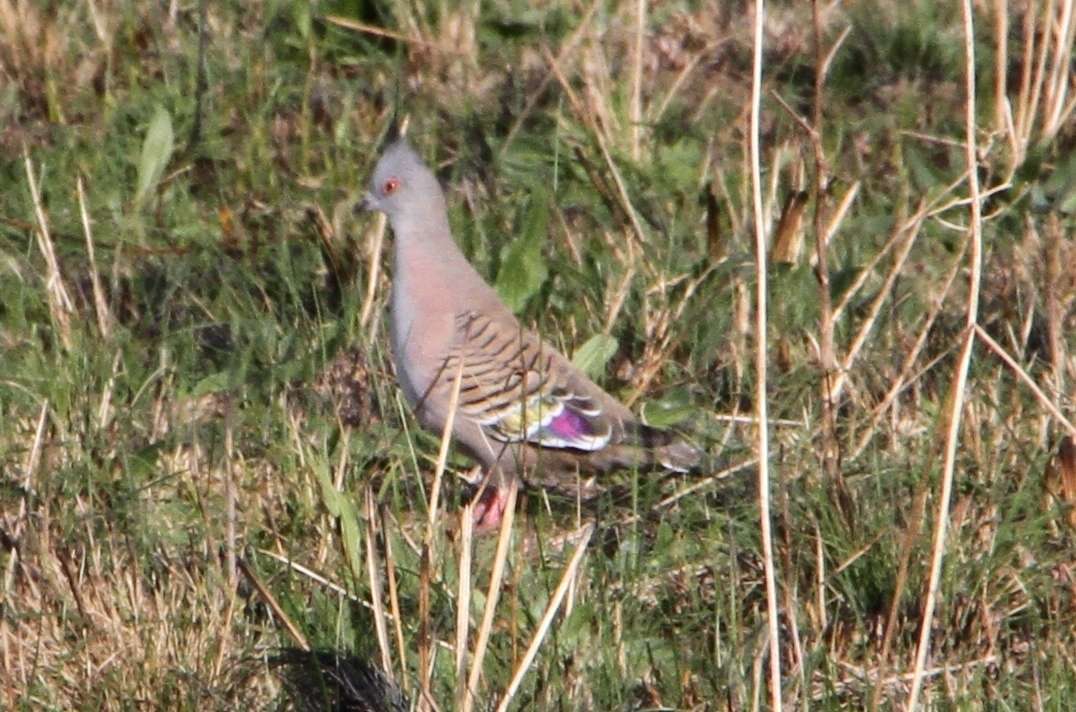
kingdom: Animalia
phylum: Chordata
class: Aves
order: Columbiformes
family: Columbidae
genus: Ocyphaps
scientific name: Ocyphaps lophotes
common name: Crested pigeon
